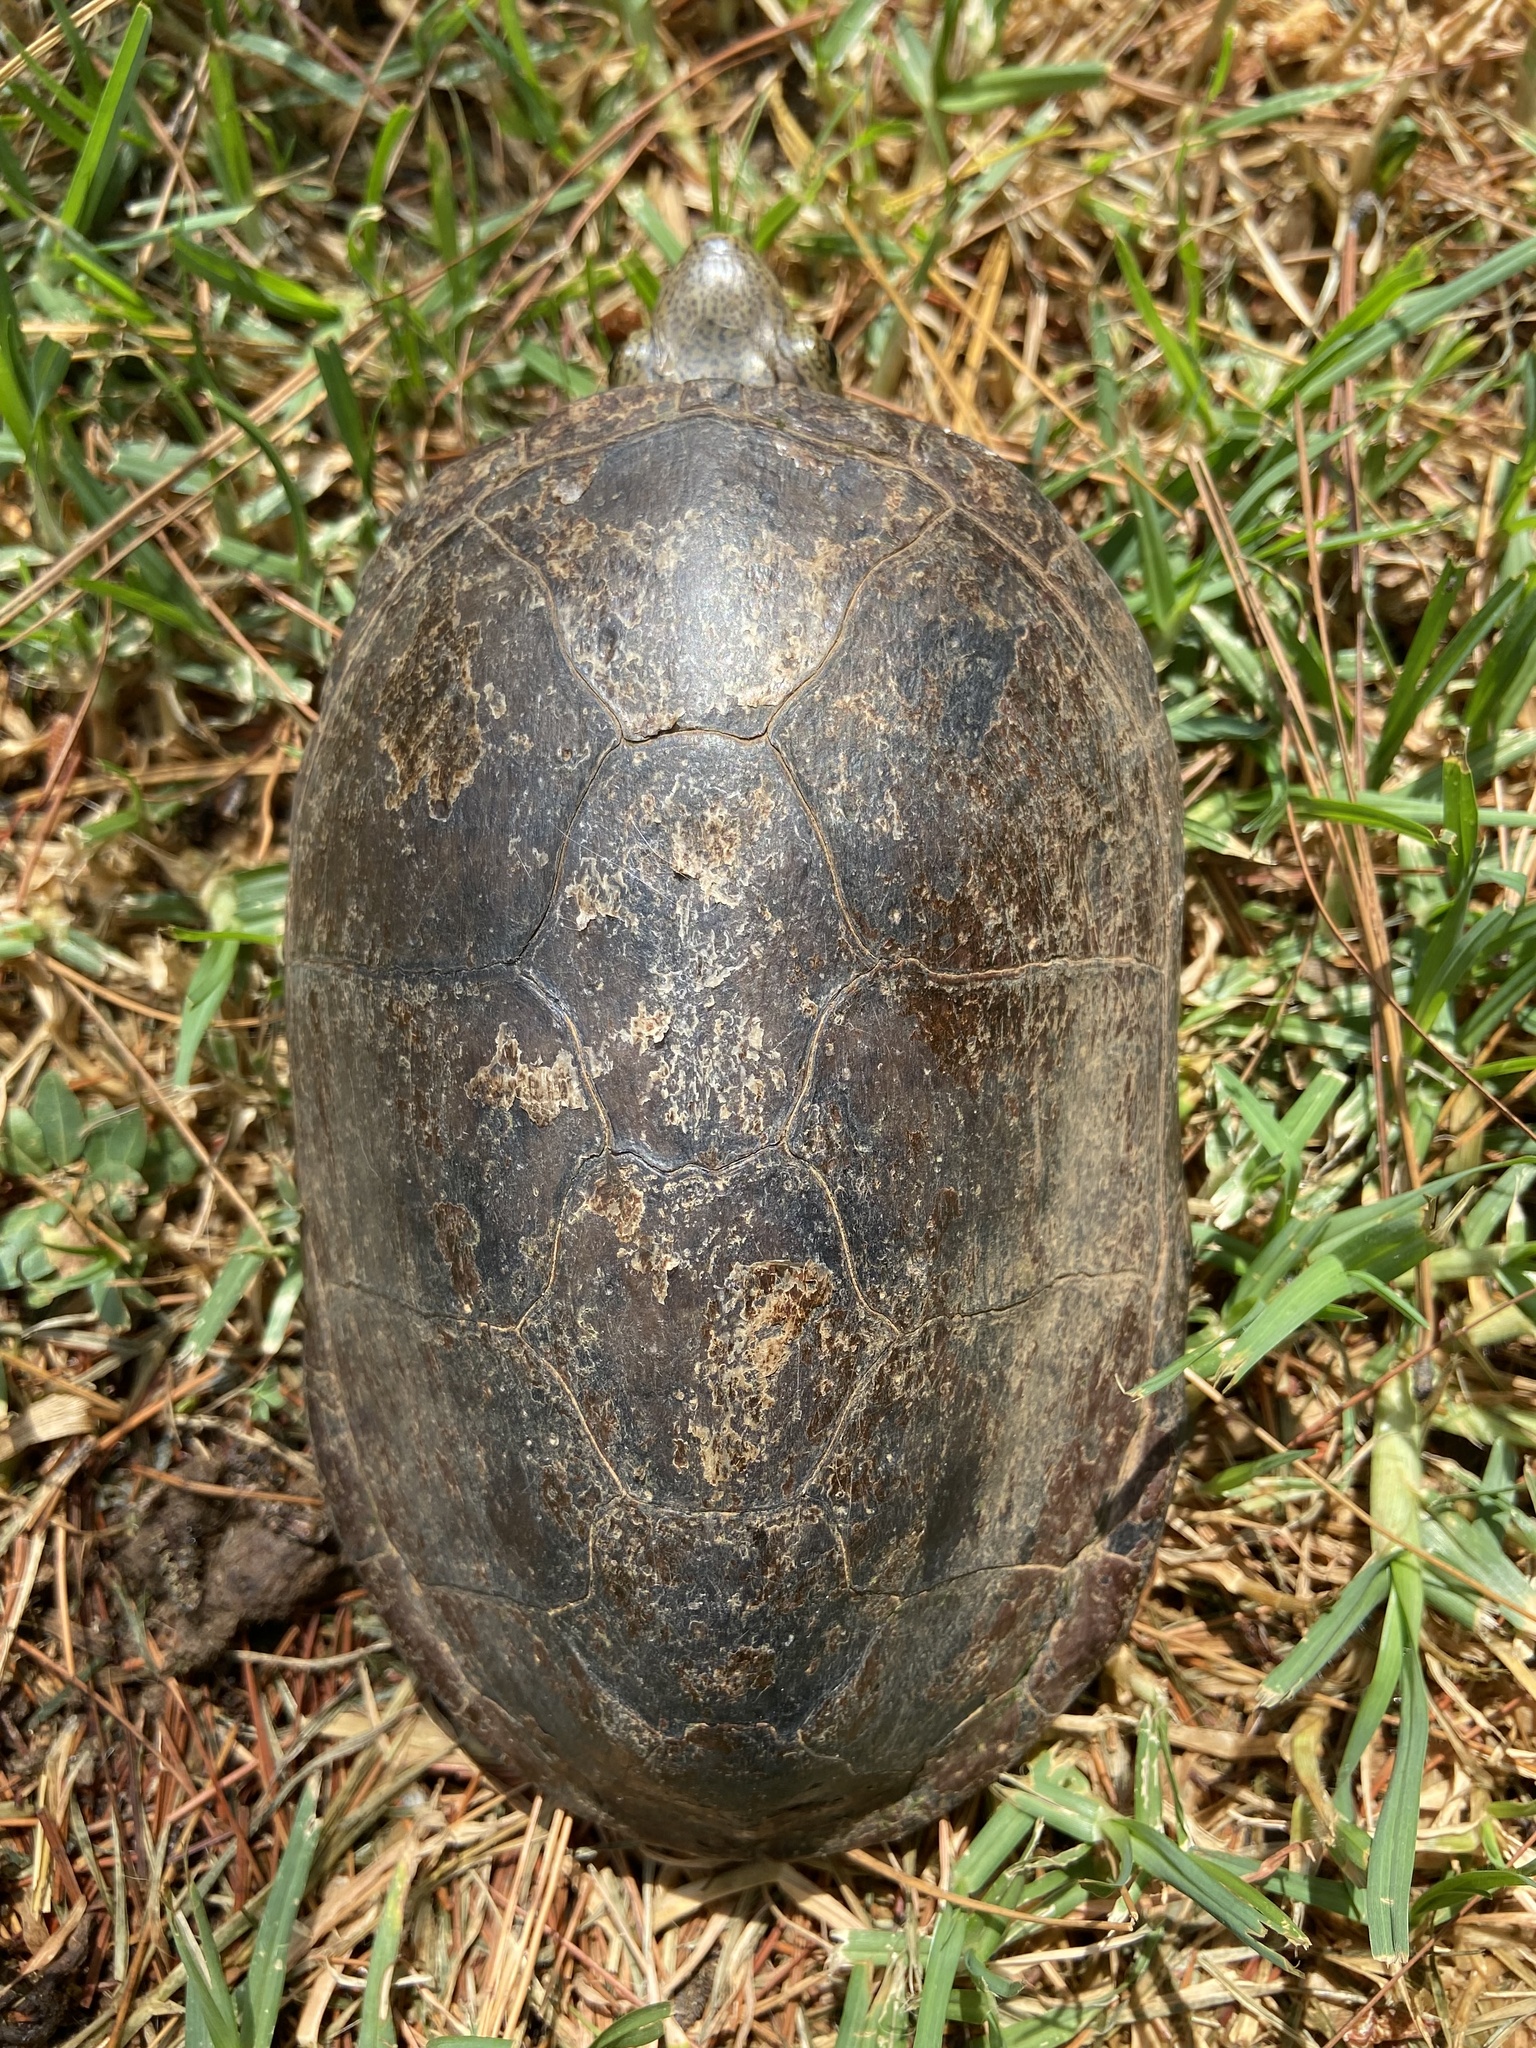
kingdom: Animalia
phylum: Chordata
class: Testudines
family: Kinosternidae
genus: Kinosternon
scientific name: Kinosternon hirtipes
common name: Rough-footed mud turtle
